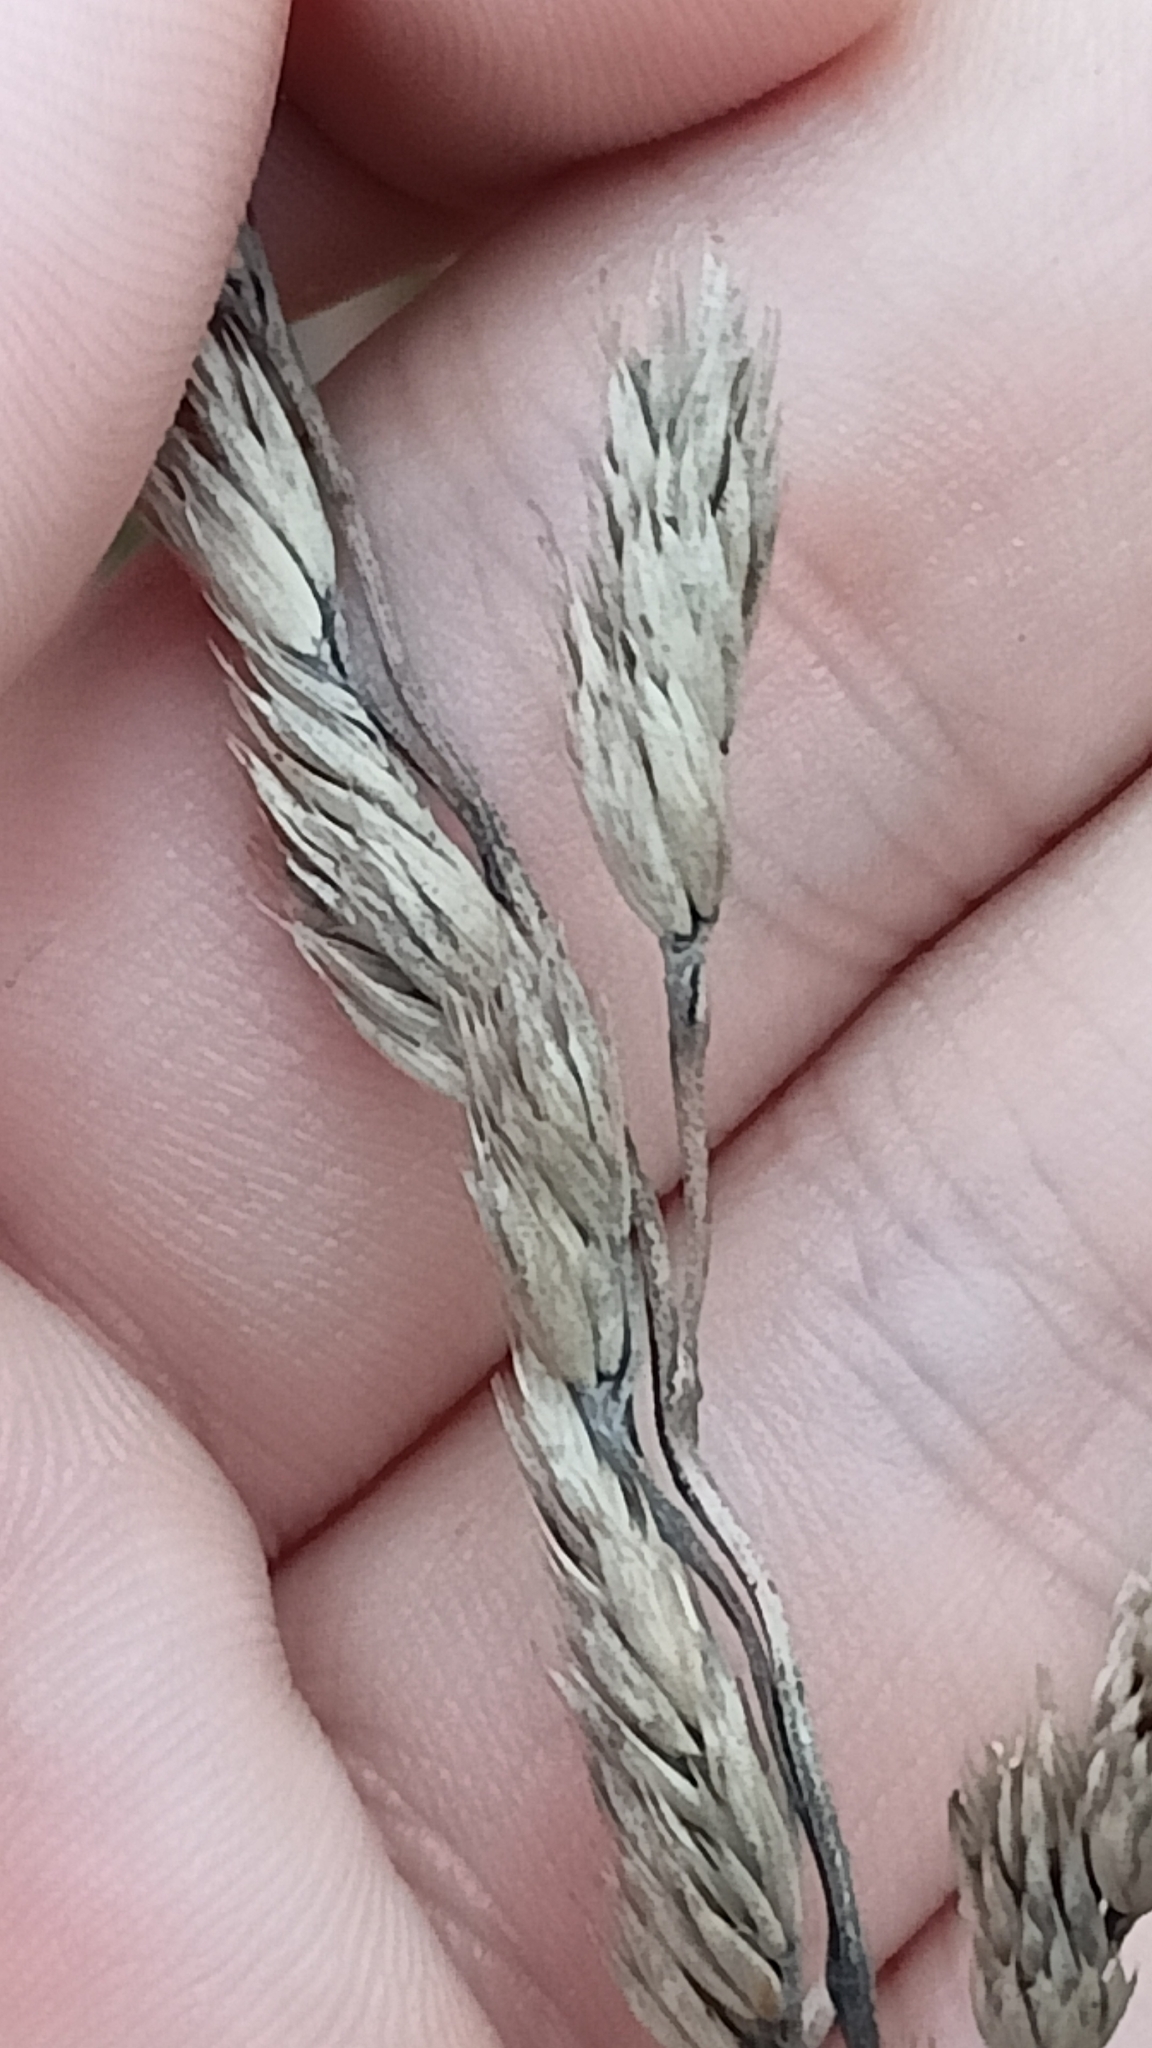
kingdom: Plantae
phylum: Tracheophyta
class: Liliopsida
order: Poales
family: Poaceae
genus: Dactylis
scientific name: Dactylis glomerata
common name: Orchardgrass
